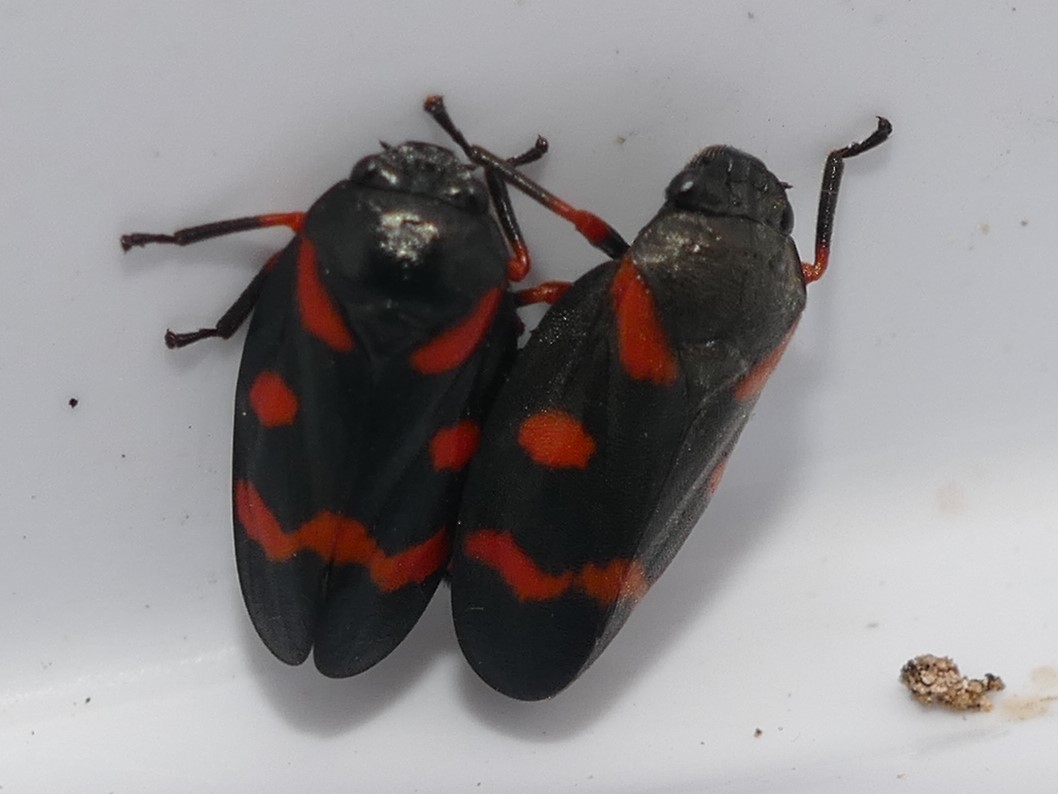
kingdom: Animalia
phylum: Arthropoda
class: Insecta
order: Hemiptera
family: Cercopidae
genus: Cercopis
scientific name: Cercopis intermedia
